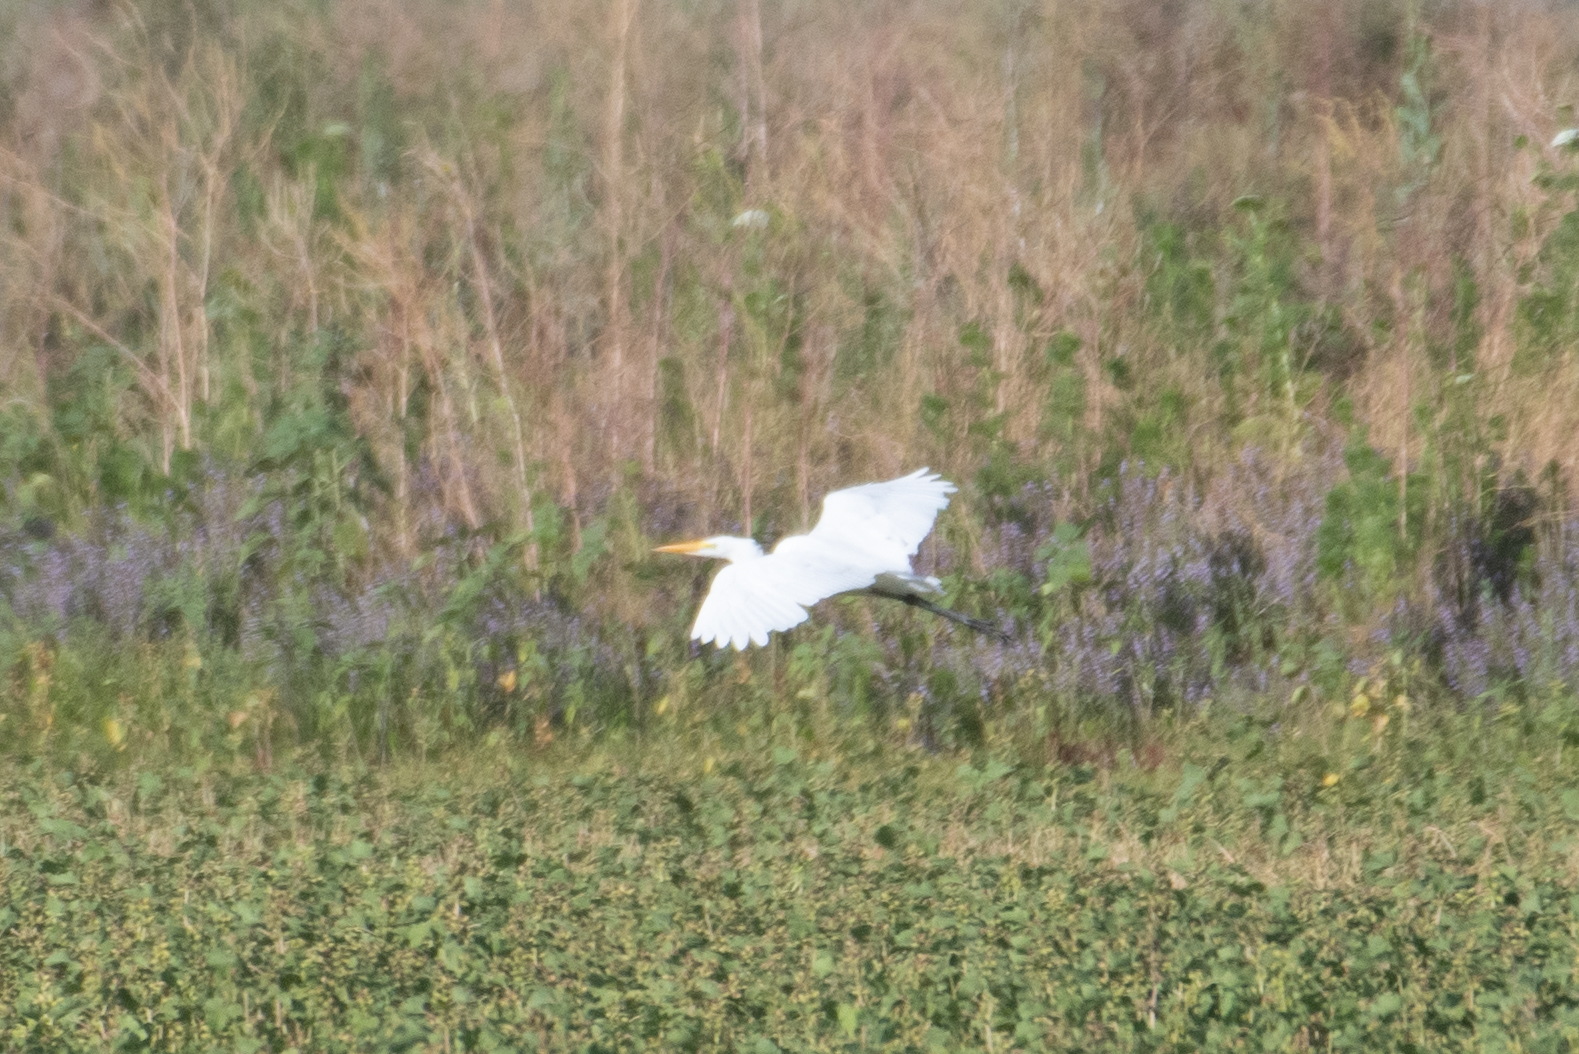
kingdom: Animalia
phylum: Chordata
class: Aves
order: Pelecaniformes
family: Ardeidae
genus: Ardea
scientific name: Ardea alba
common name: Great egret
